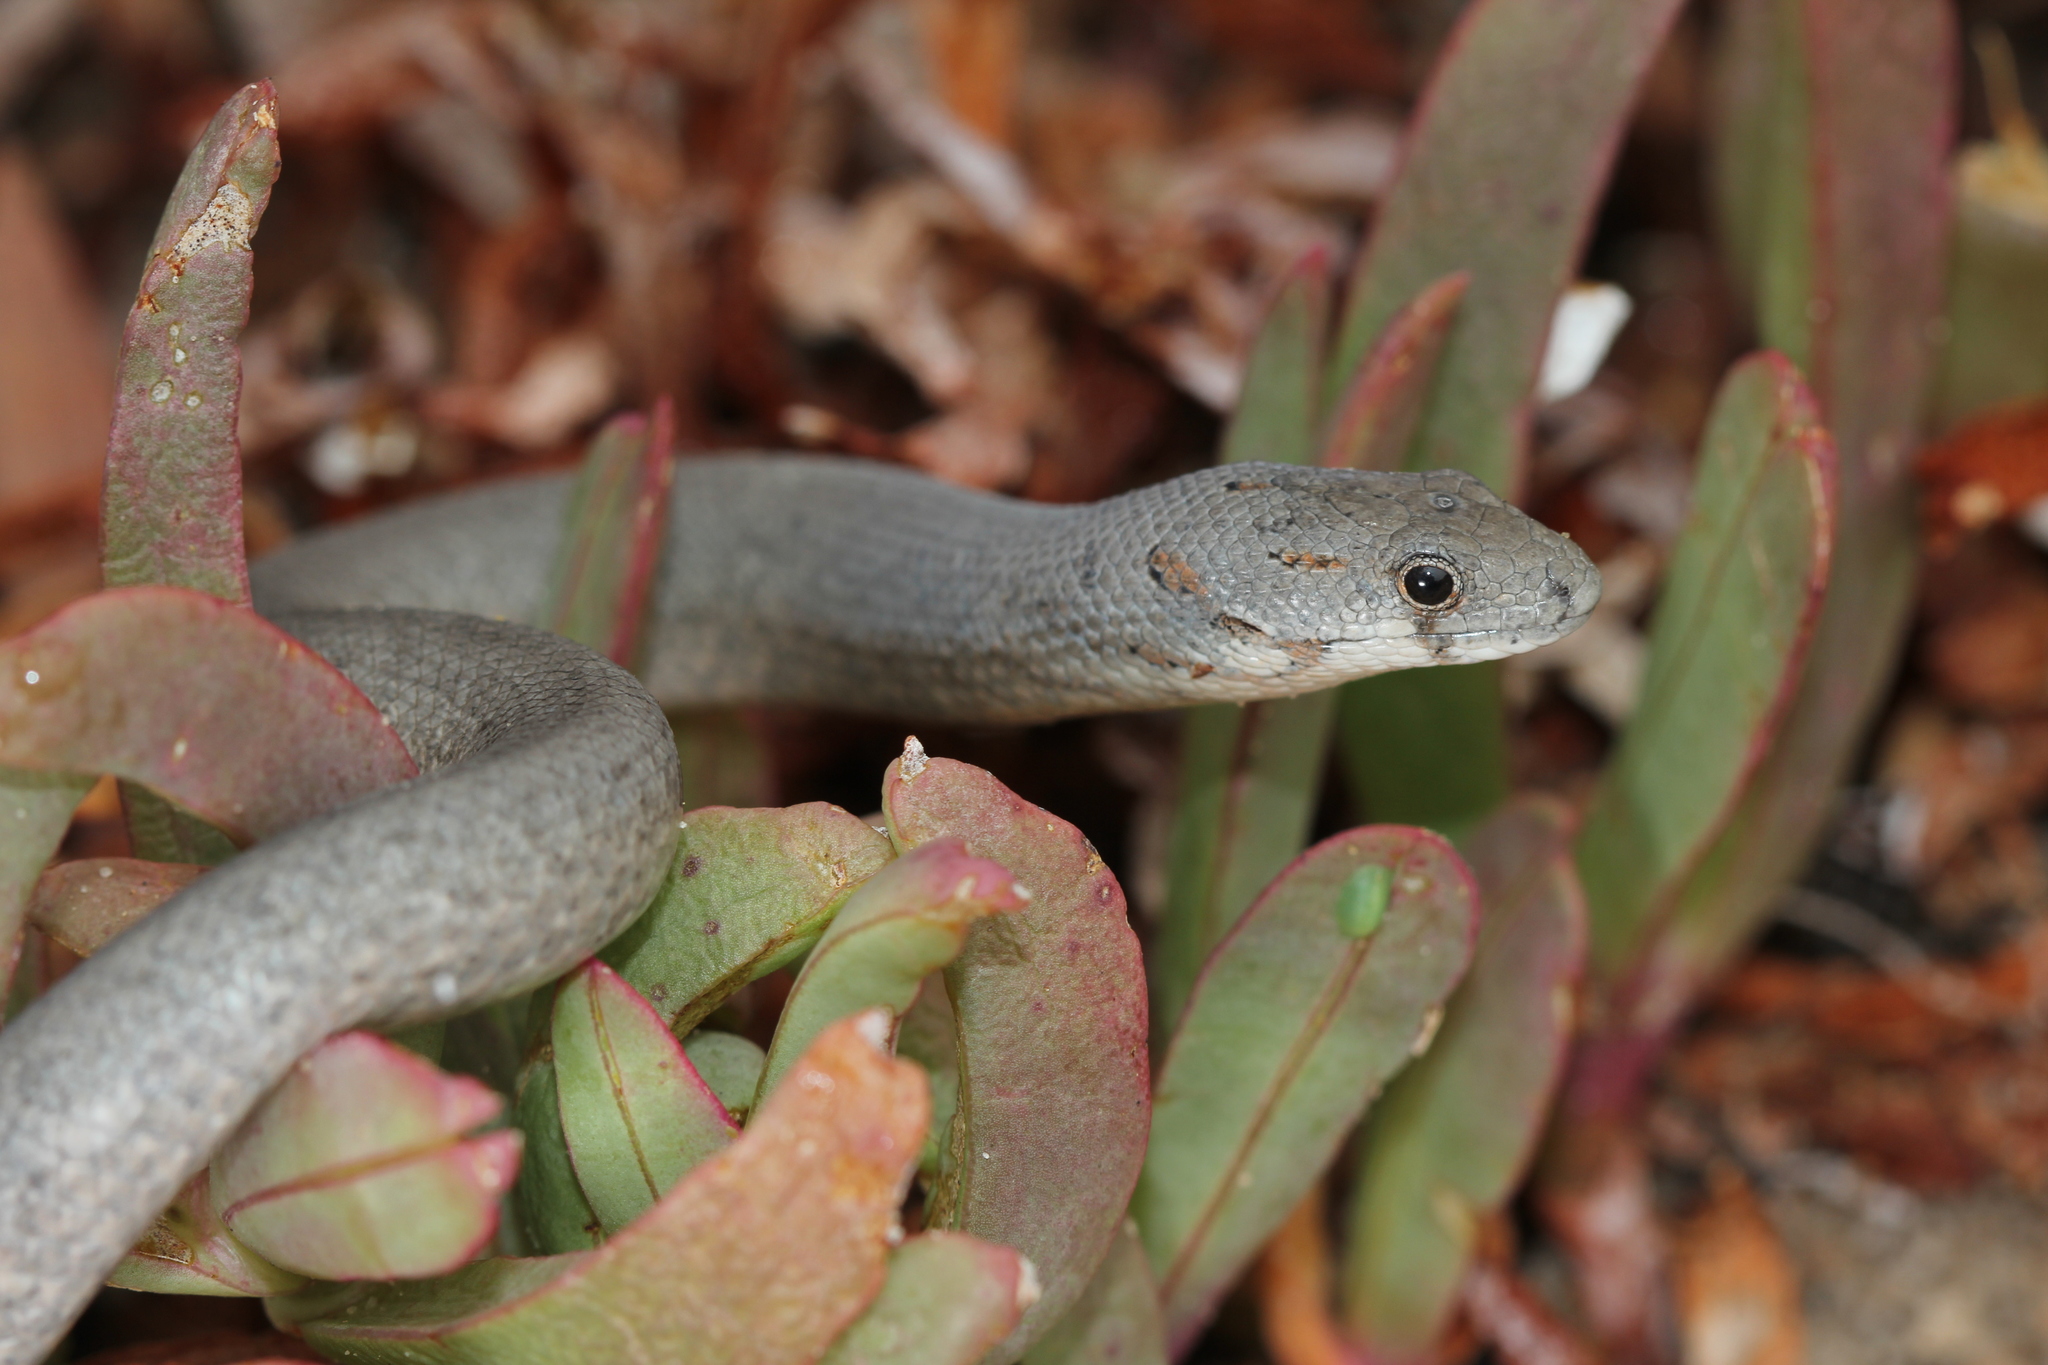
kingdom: Animalia
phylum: Chordata
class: Squamata
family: Pygopodidae
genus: Pygopus
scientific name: Pygopus lepidopodus
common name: Southern scaly-foot
